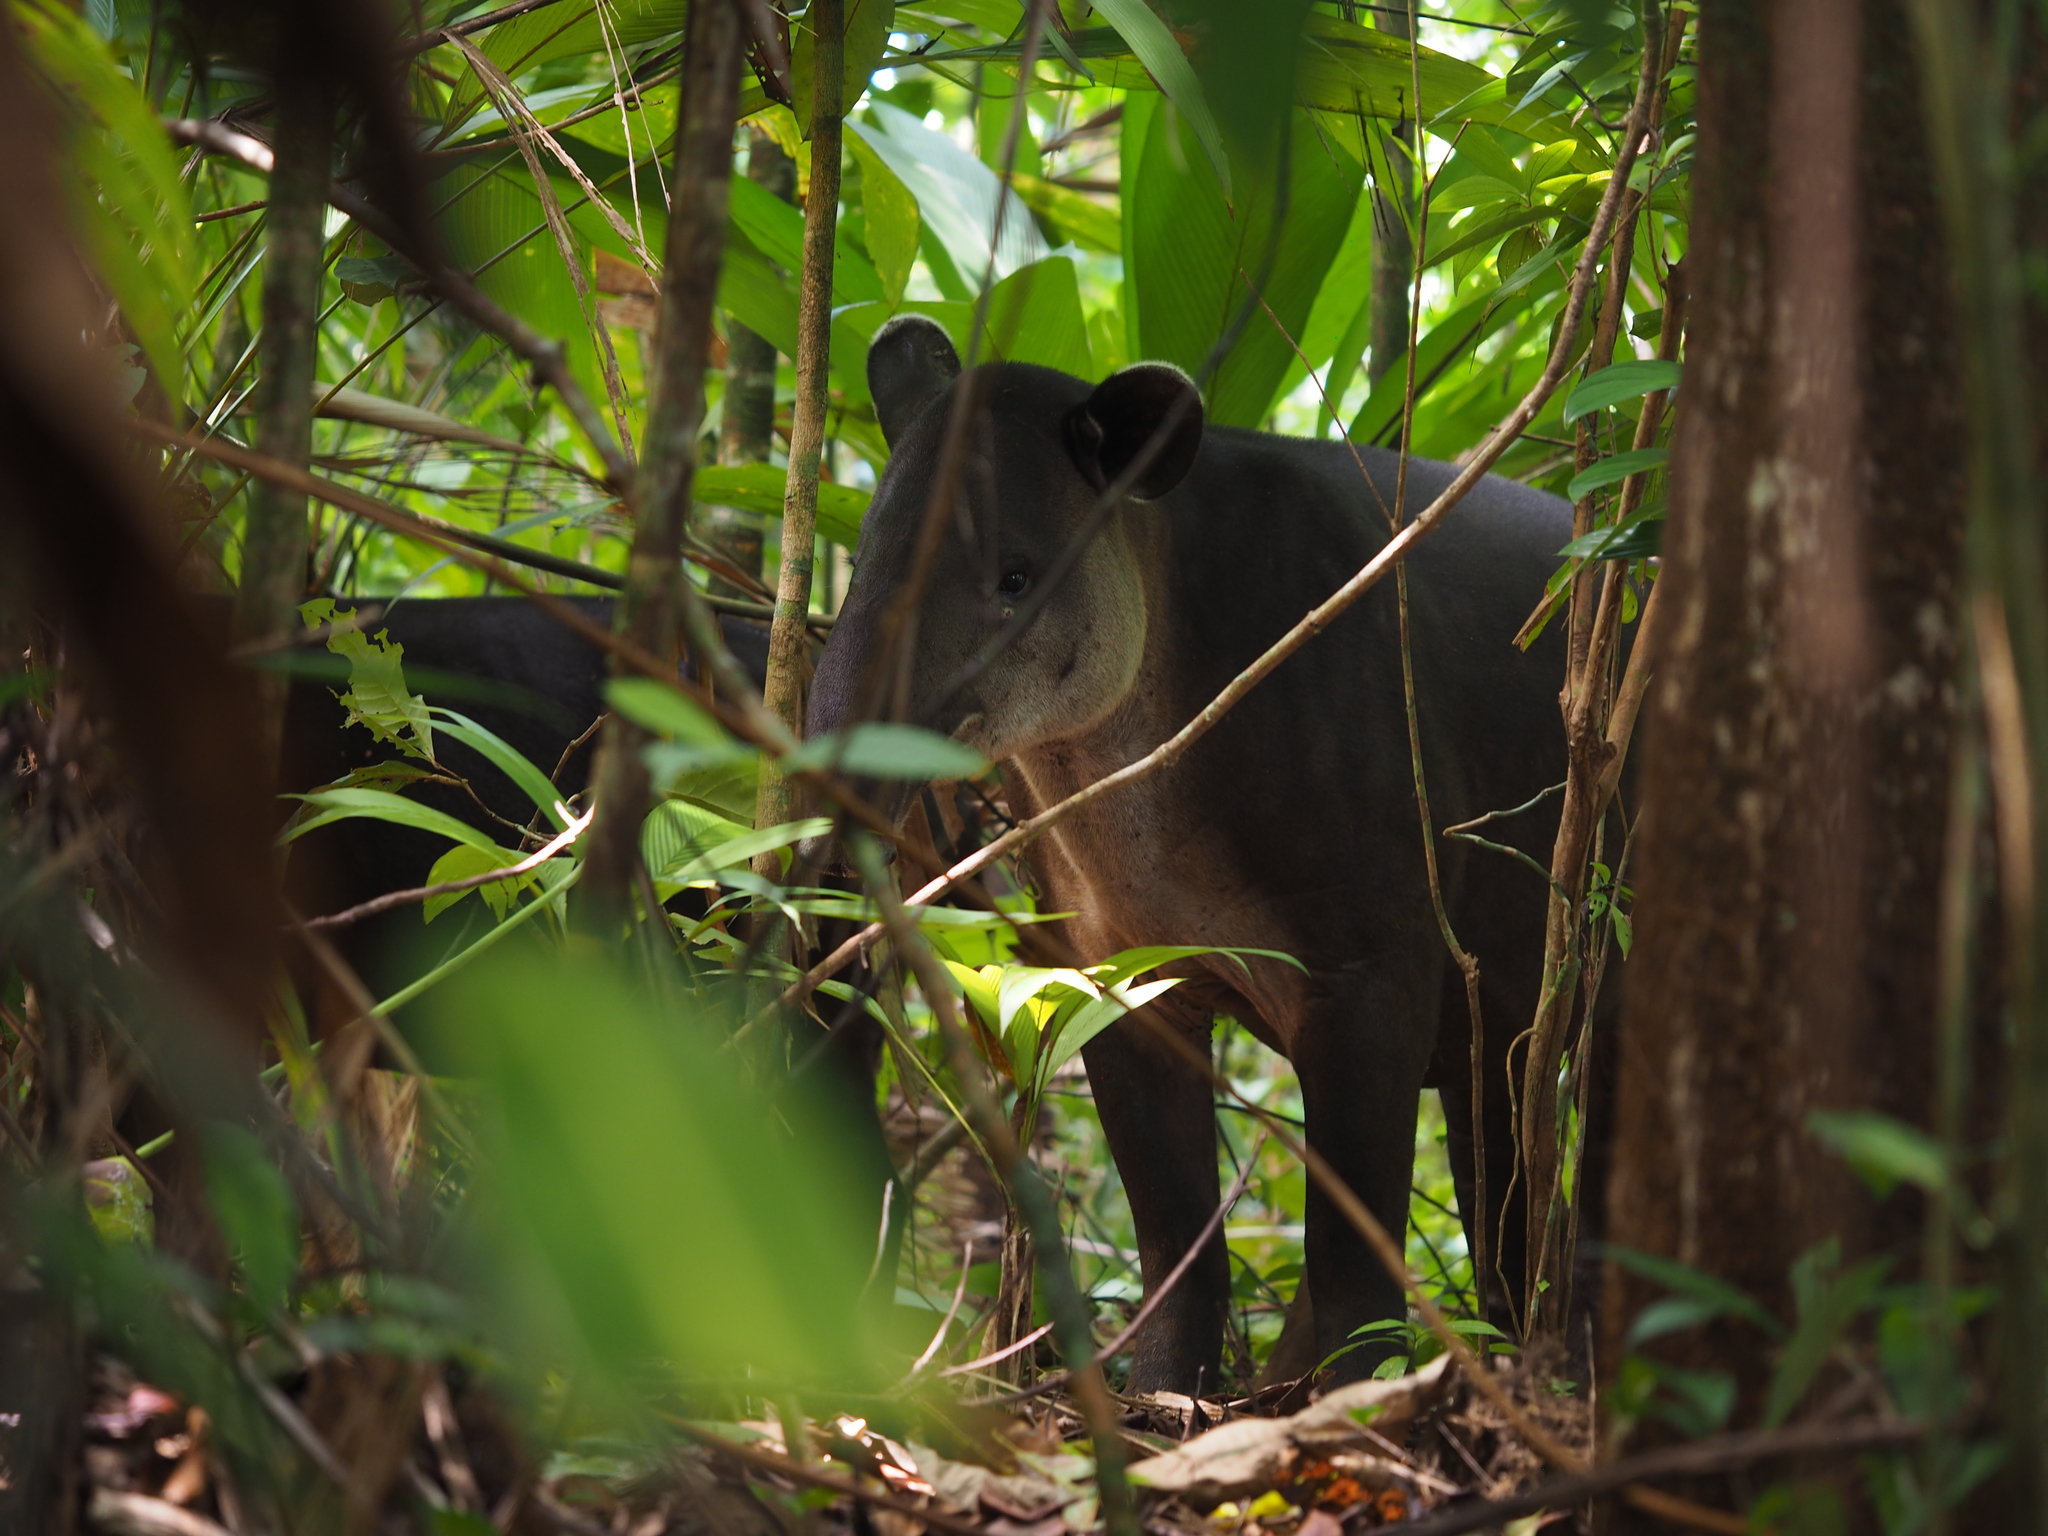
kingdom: Animalia
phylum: Chordata
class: Mammalia
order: Perissodactyla
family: Tapiridae
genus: Tapirella
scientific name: Tapirella bairdii
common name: Baird's tapir
